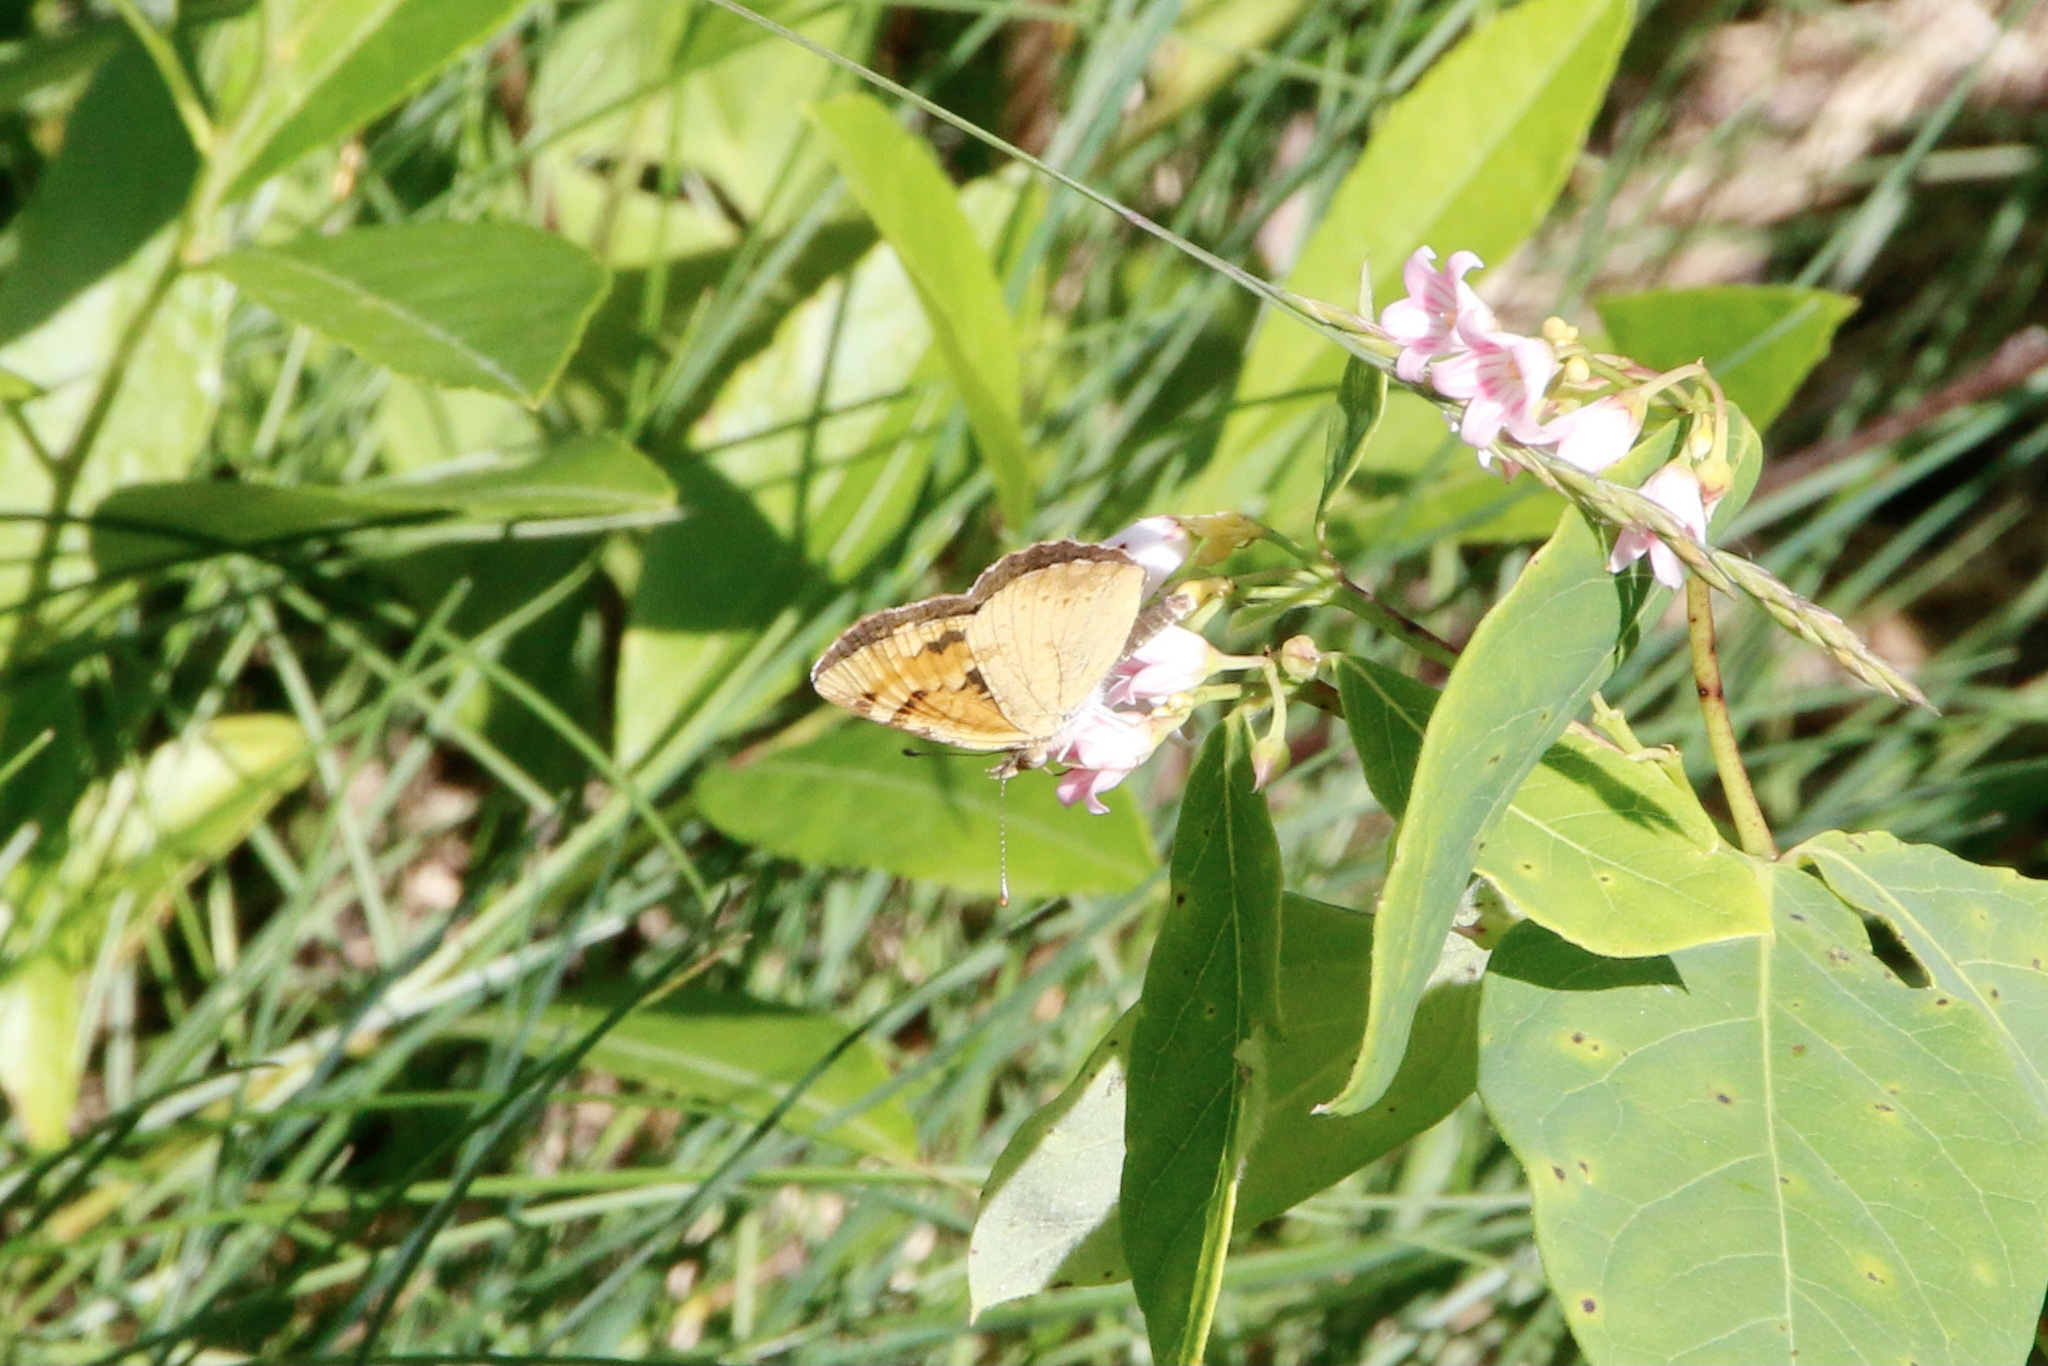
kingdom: Animalia
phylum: Arthropoda
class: Insecta
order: Lepidoptera
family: Nymphalidae
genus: Phyciodes
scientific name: Phyciodes batesii
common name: Tawny crescent
